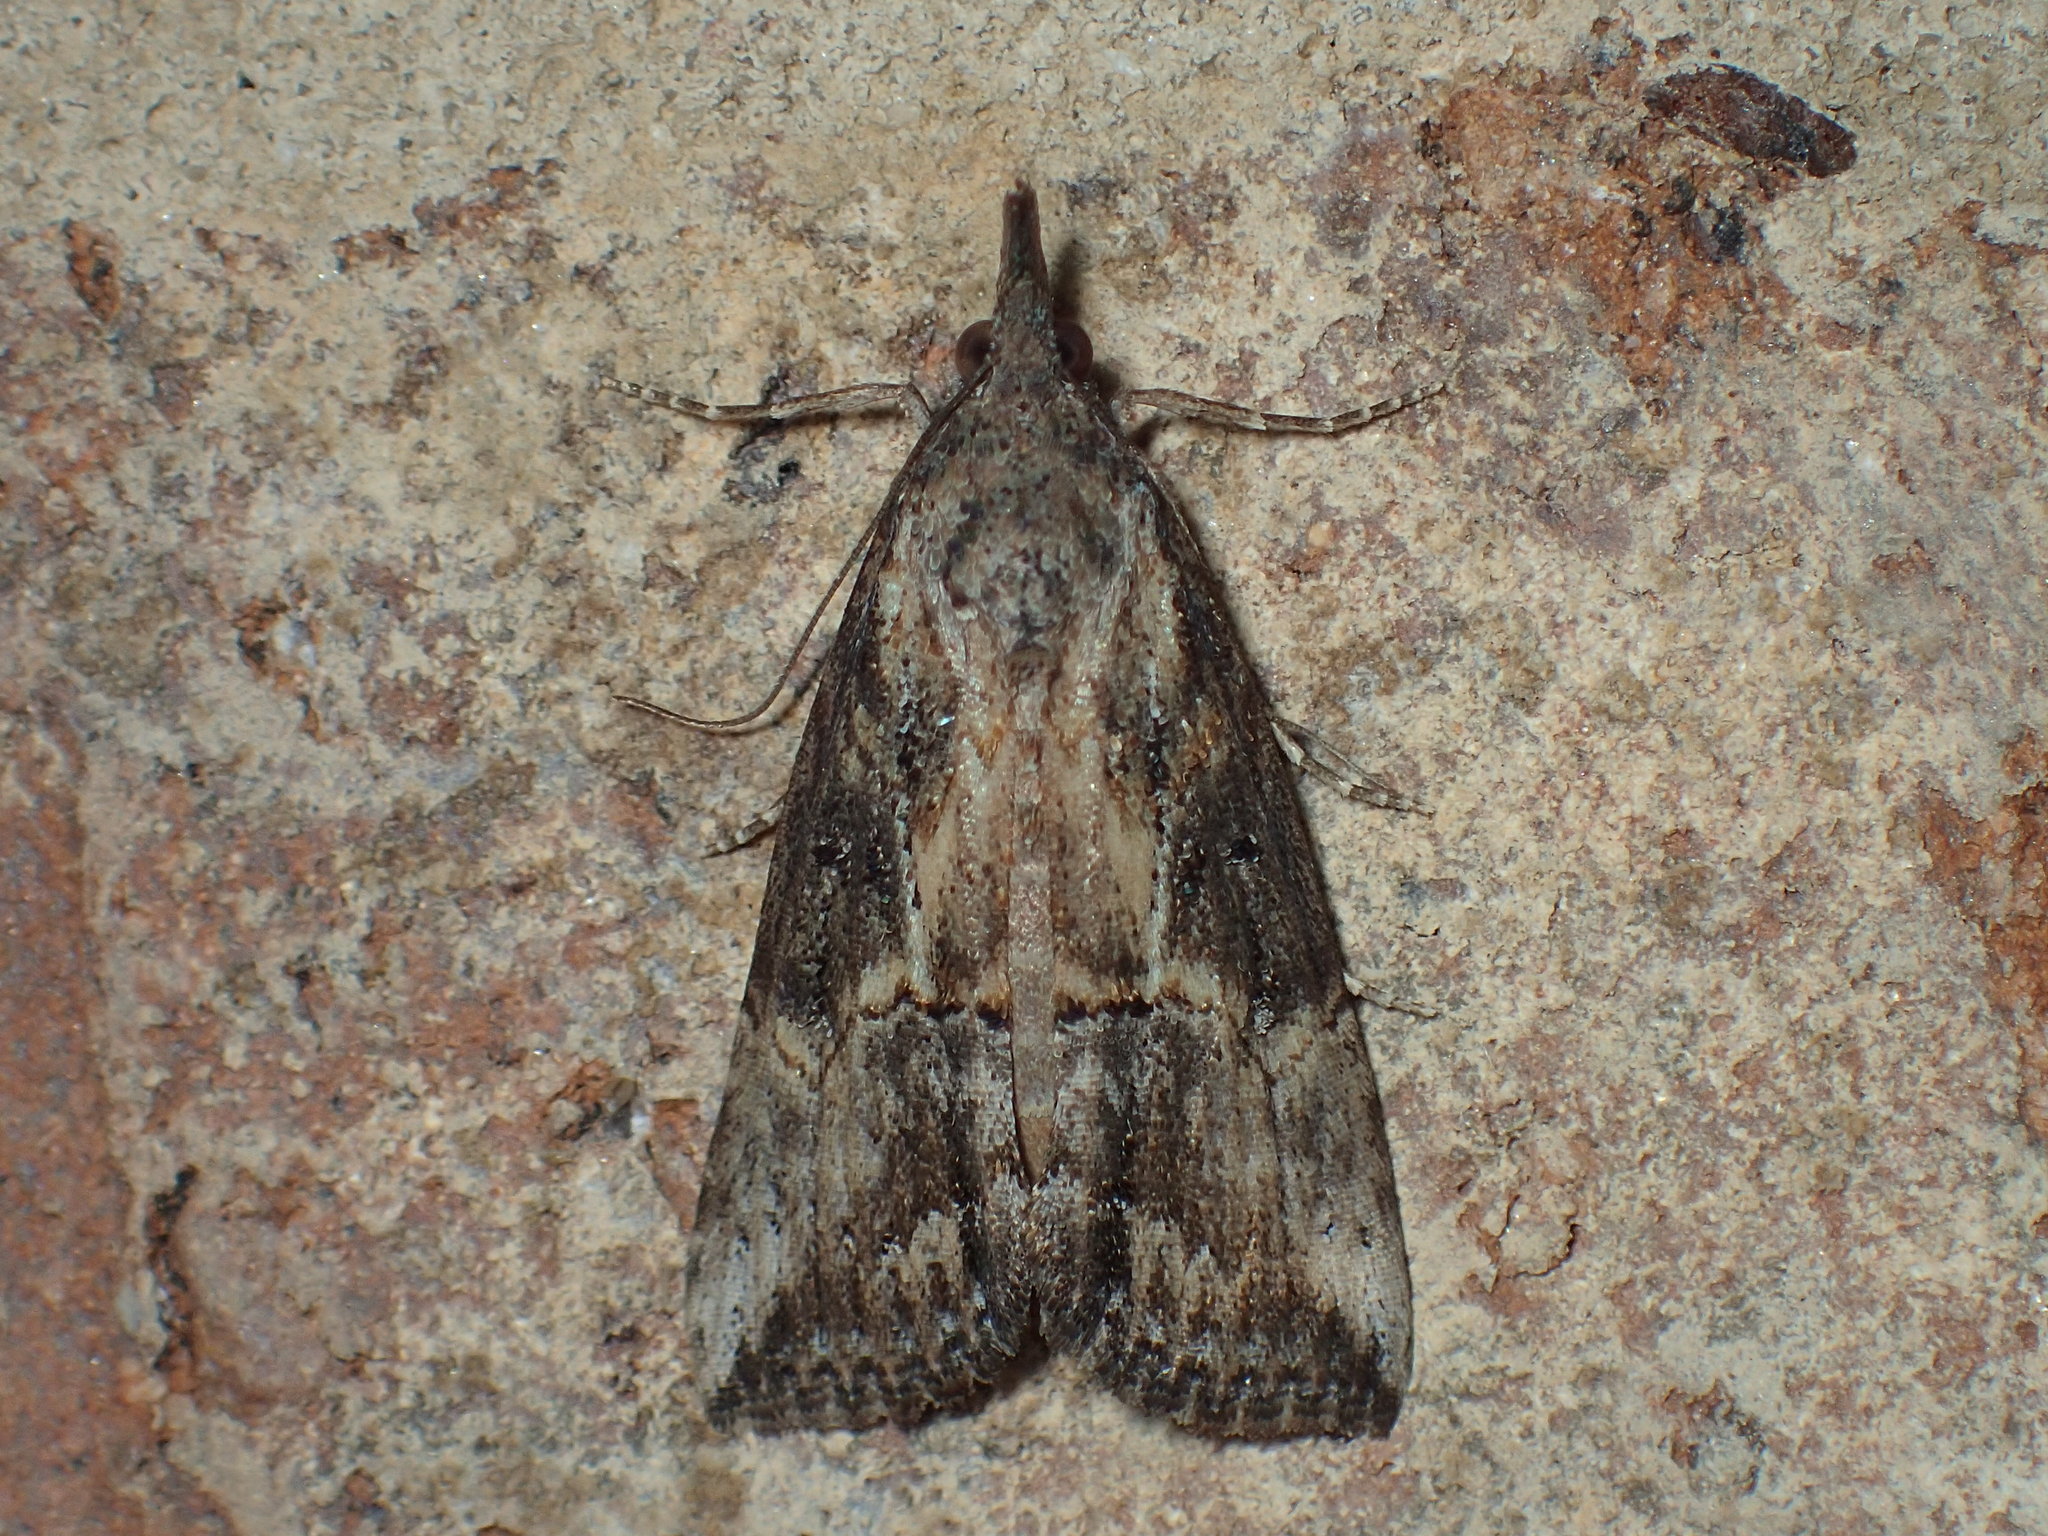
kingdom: Animalia
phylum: Arthropoda
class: Insecta
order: Lepidoptera
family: Erebidae
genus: Hypena
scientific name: Hypena scabra
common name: Green cloverworm
